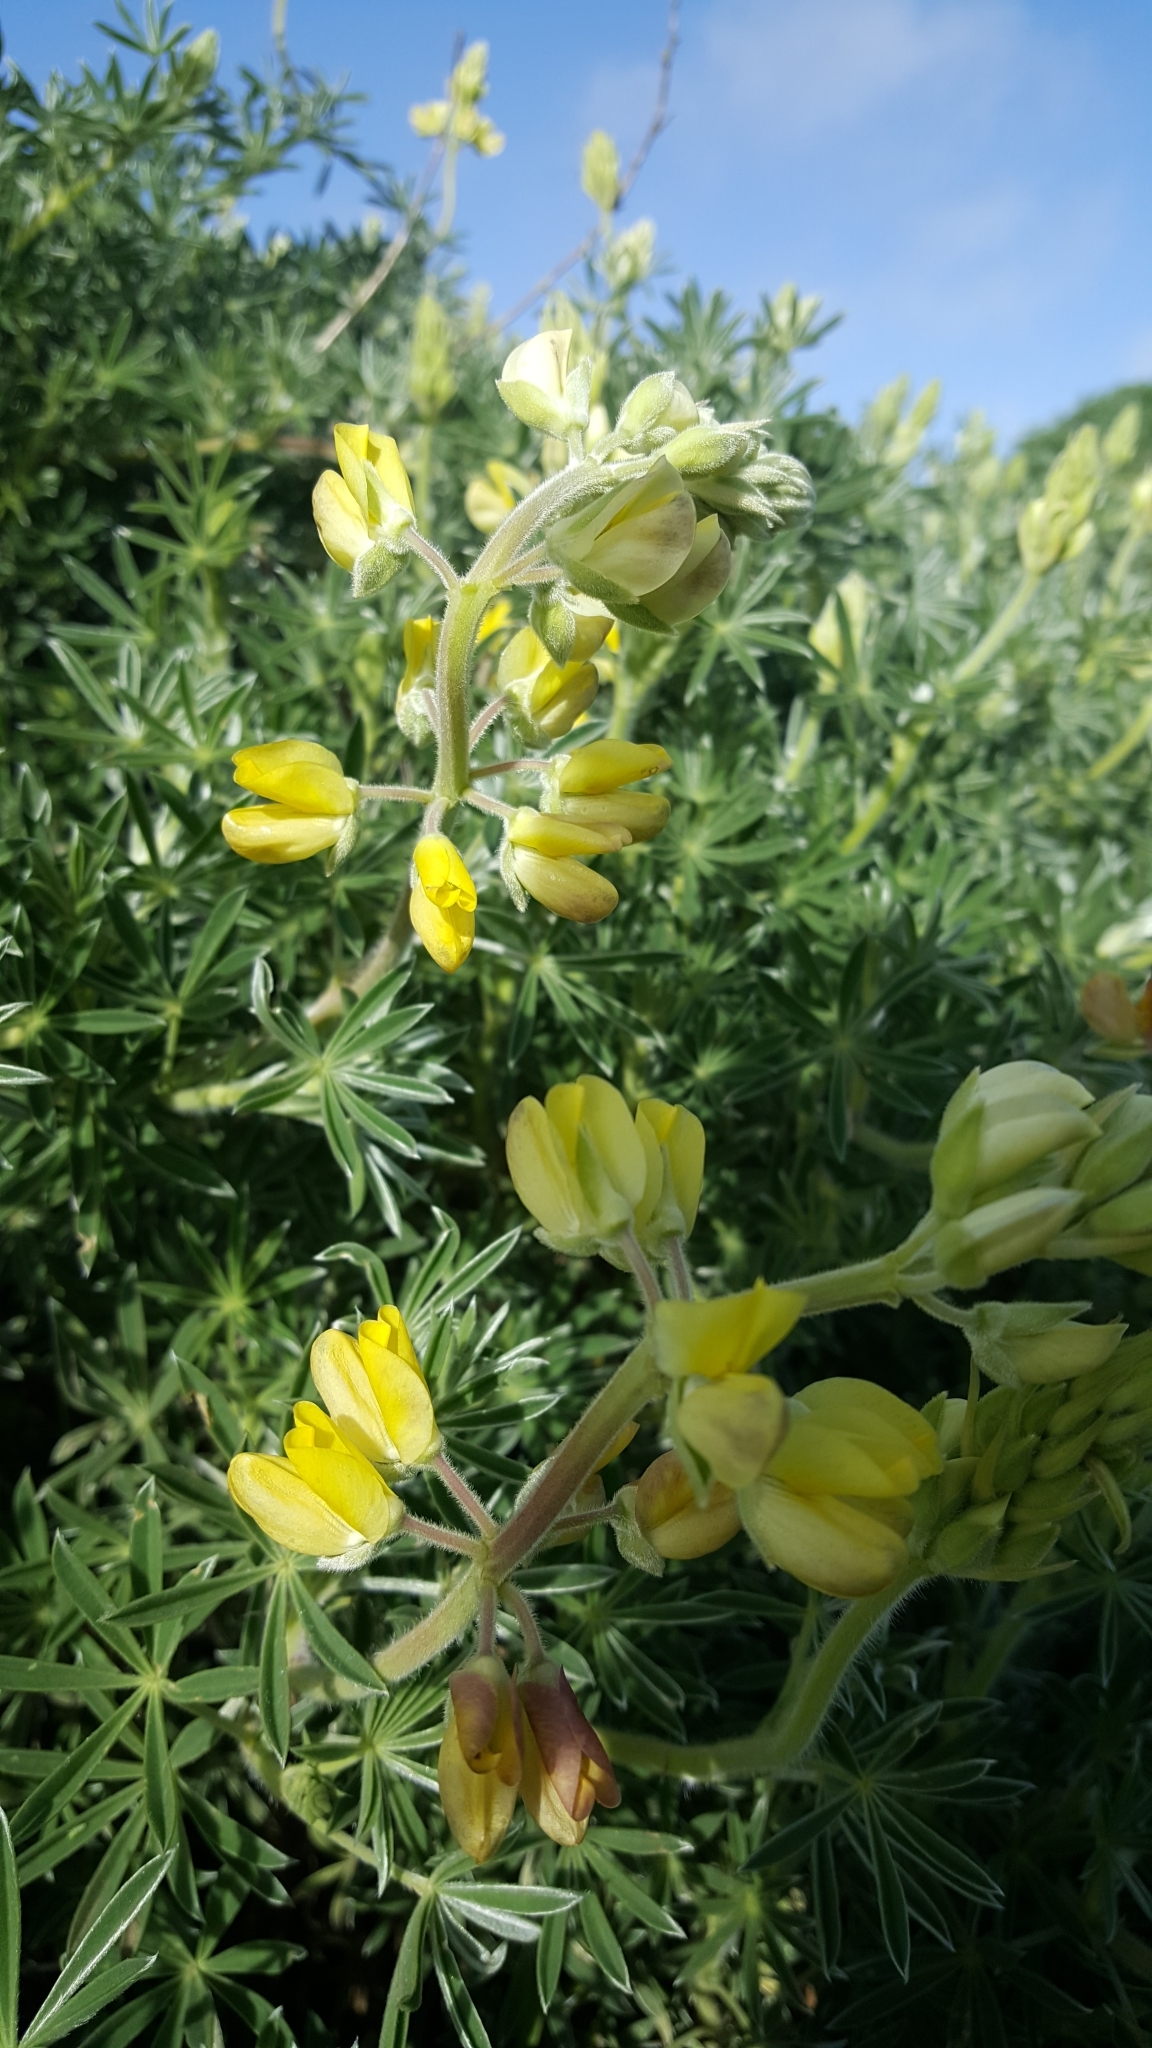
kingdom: Plantae
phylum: Tracheophyta
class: Magnoliopsida
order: Fabales
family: Fabaceae
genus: Lupinus
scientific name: Lupinus arboreus
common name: Yellow bush lupine
